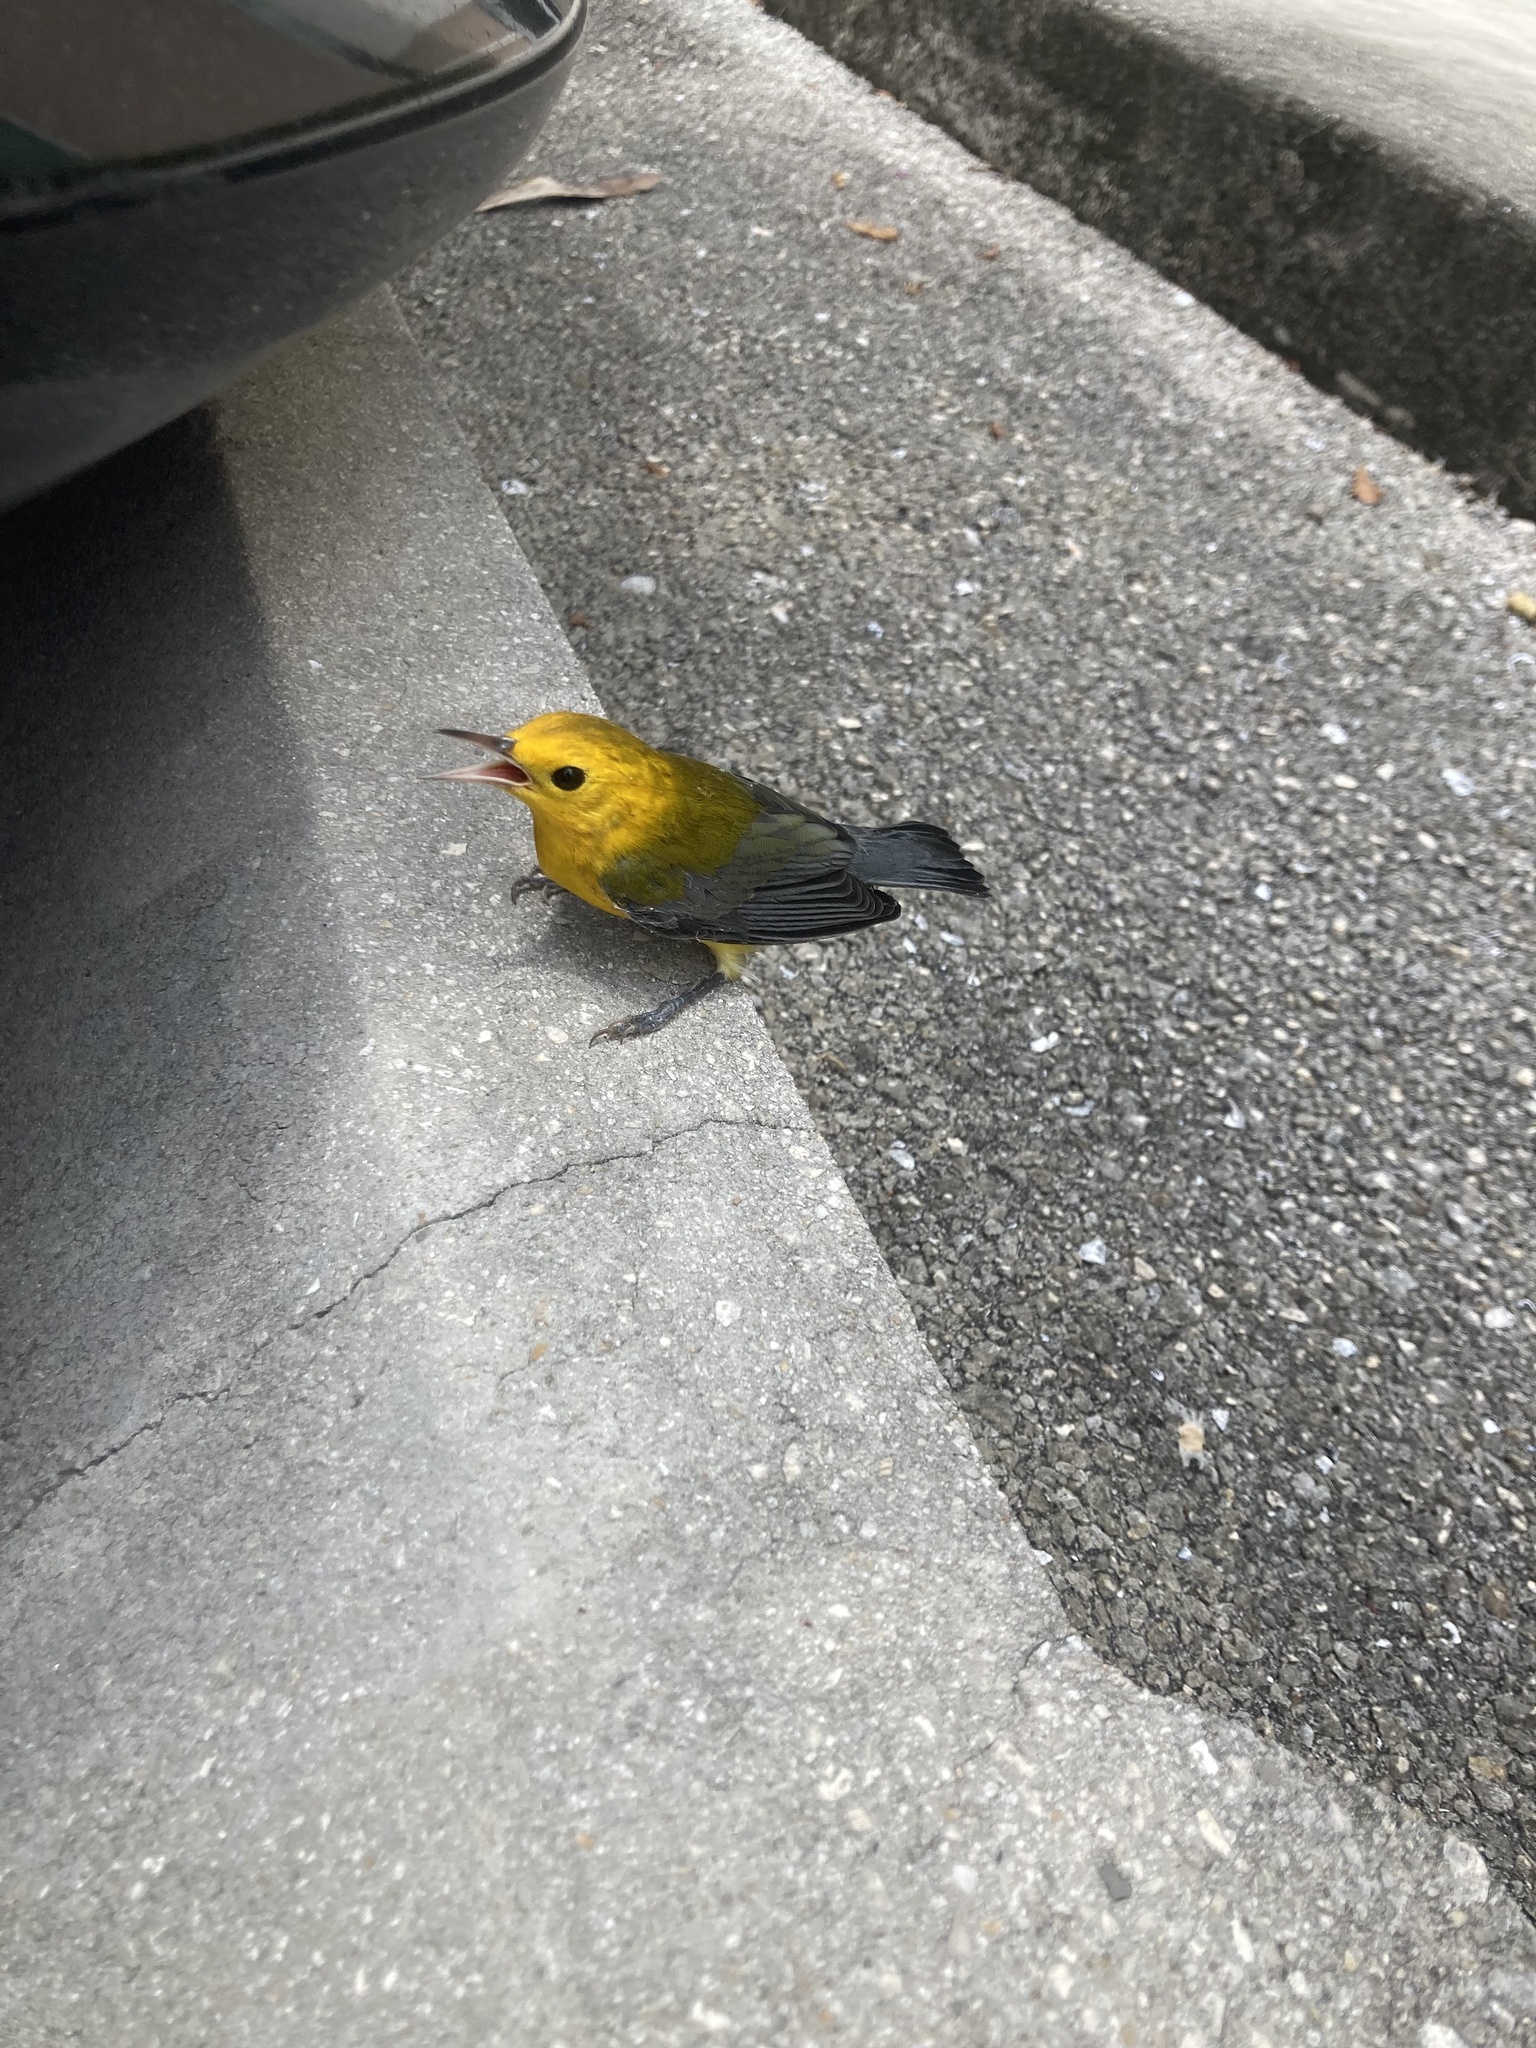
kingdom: Animalia
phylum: Chordata
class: Aves
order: Passeriformes
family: Parulidae
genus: Protonotaria
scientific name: Protonotaria citrea
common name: Prothonotary warbler
